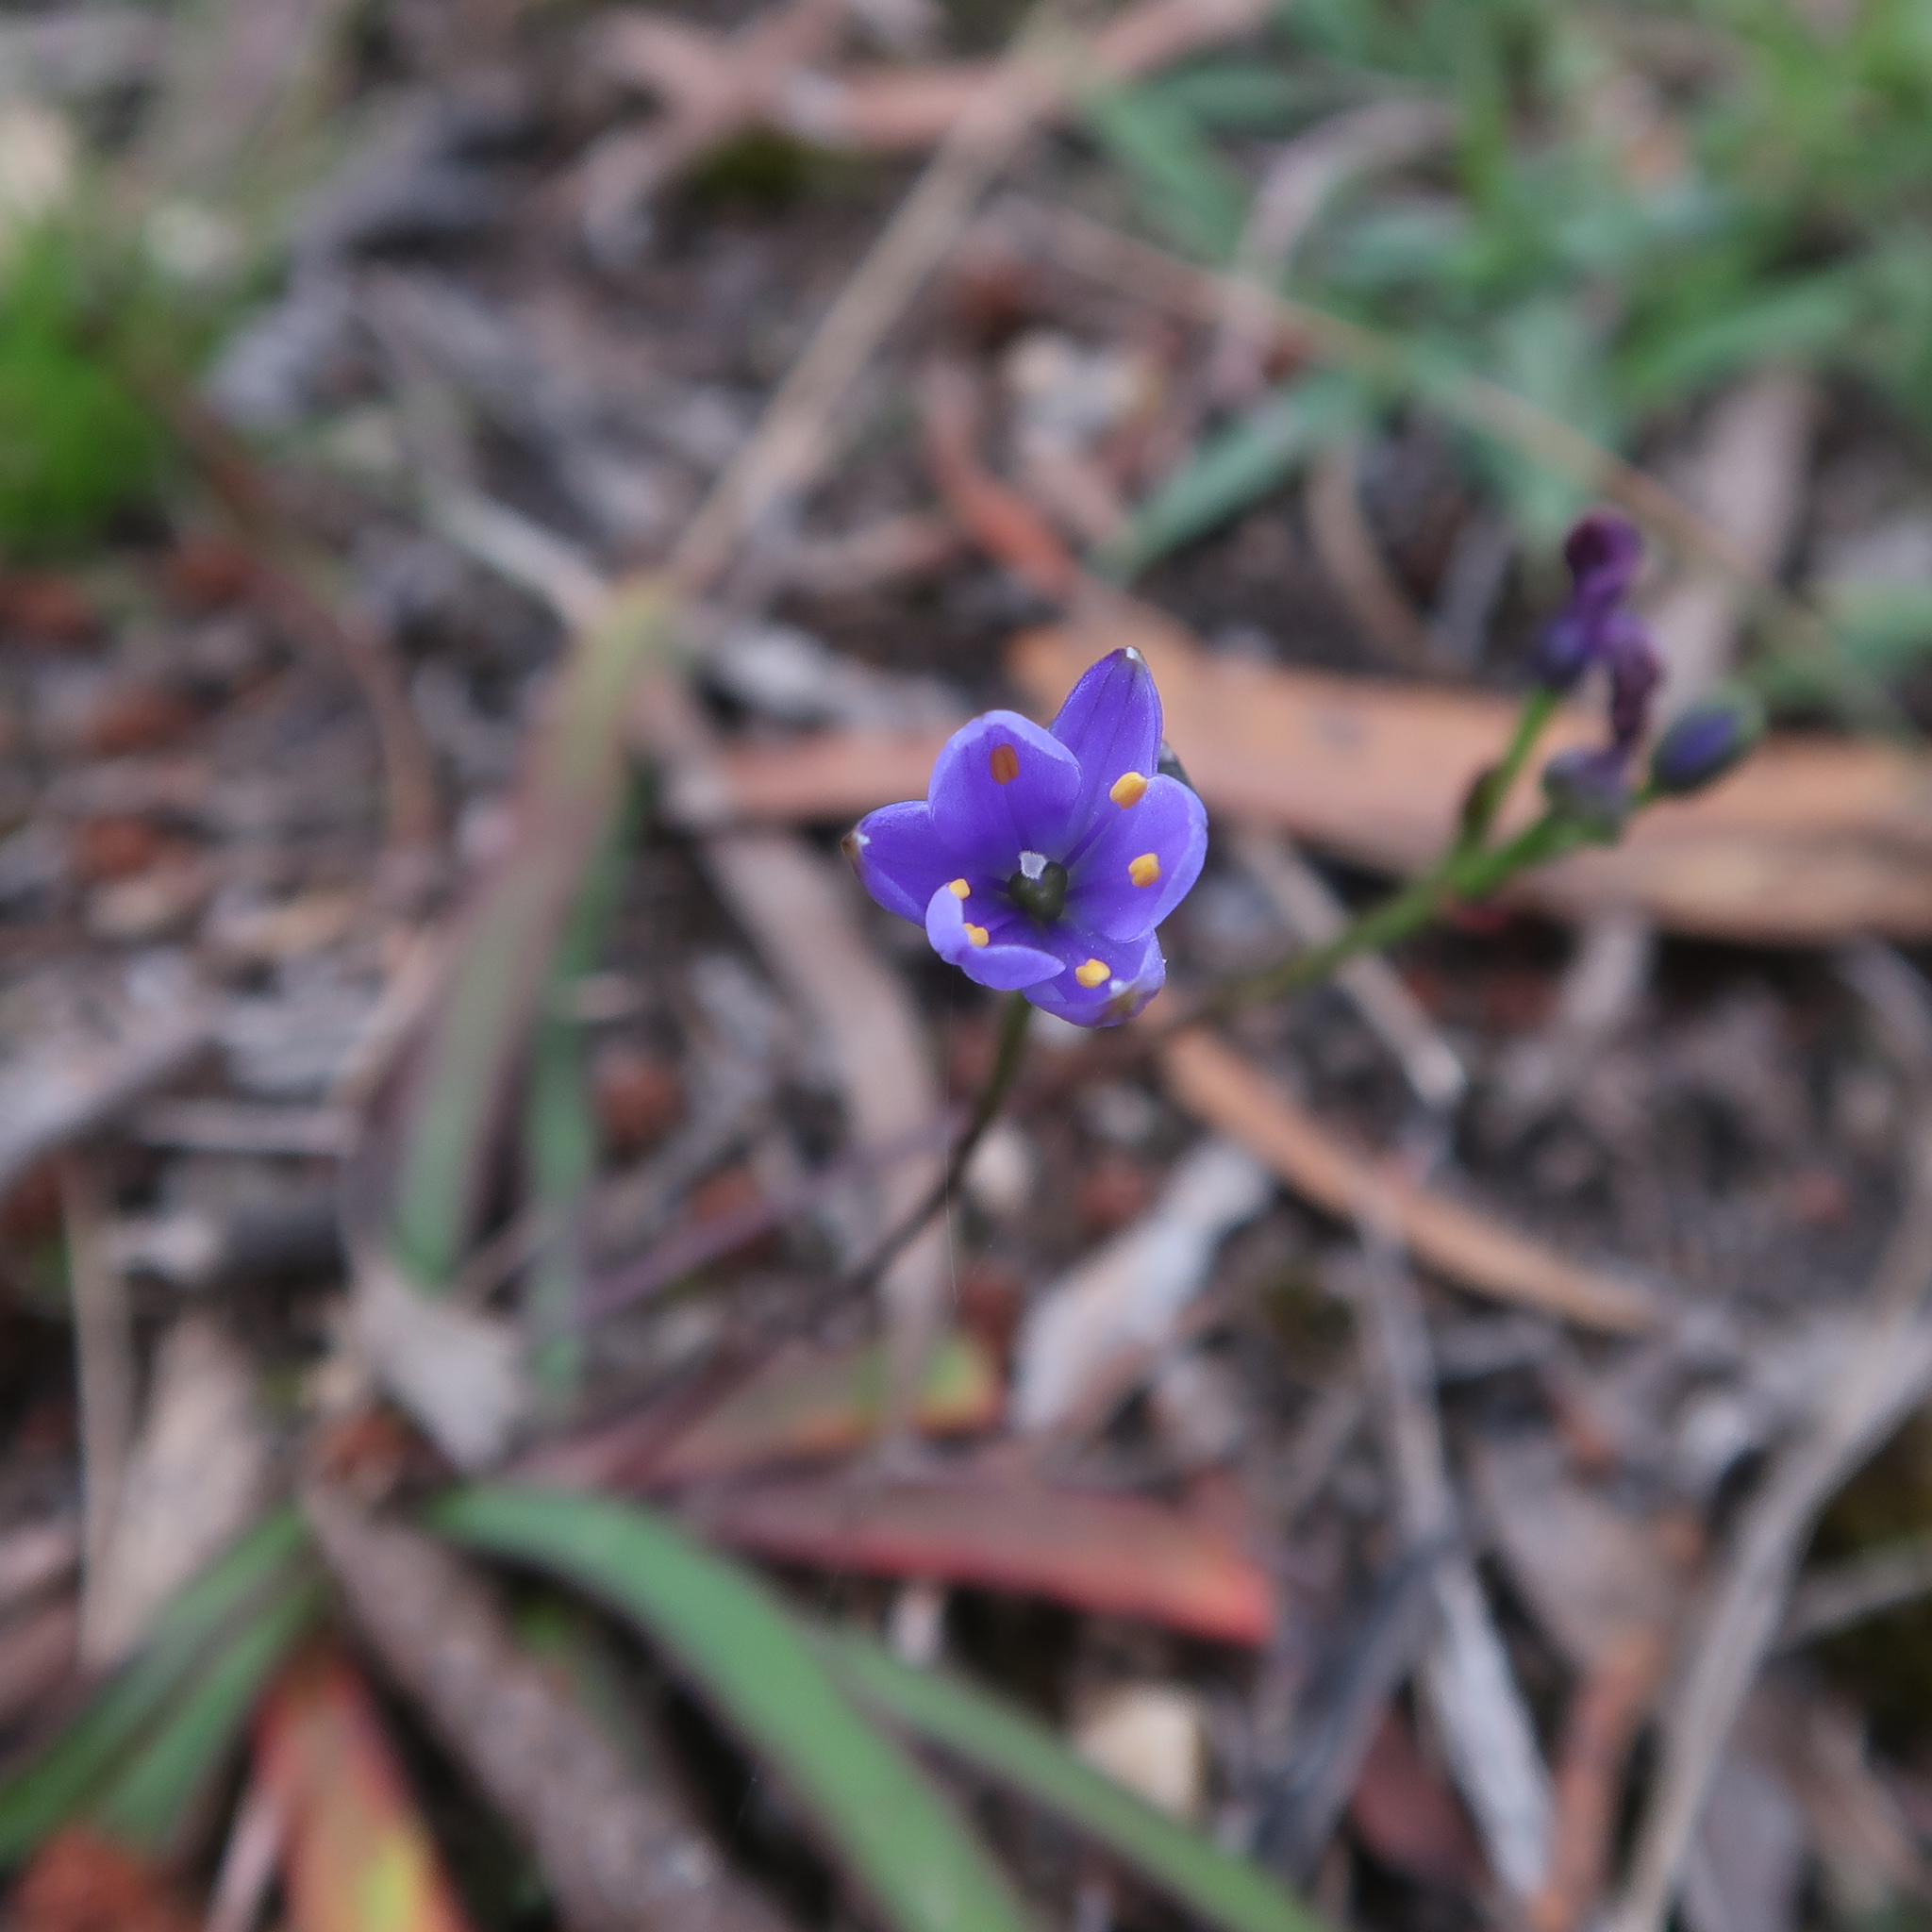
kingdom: Plantae
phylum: Tracheophyta
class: Liliopsida
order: Asparagales
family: Asphodelaceae
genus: Chamaescilla
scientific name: Chamaescilla corymbosa
